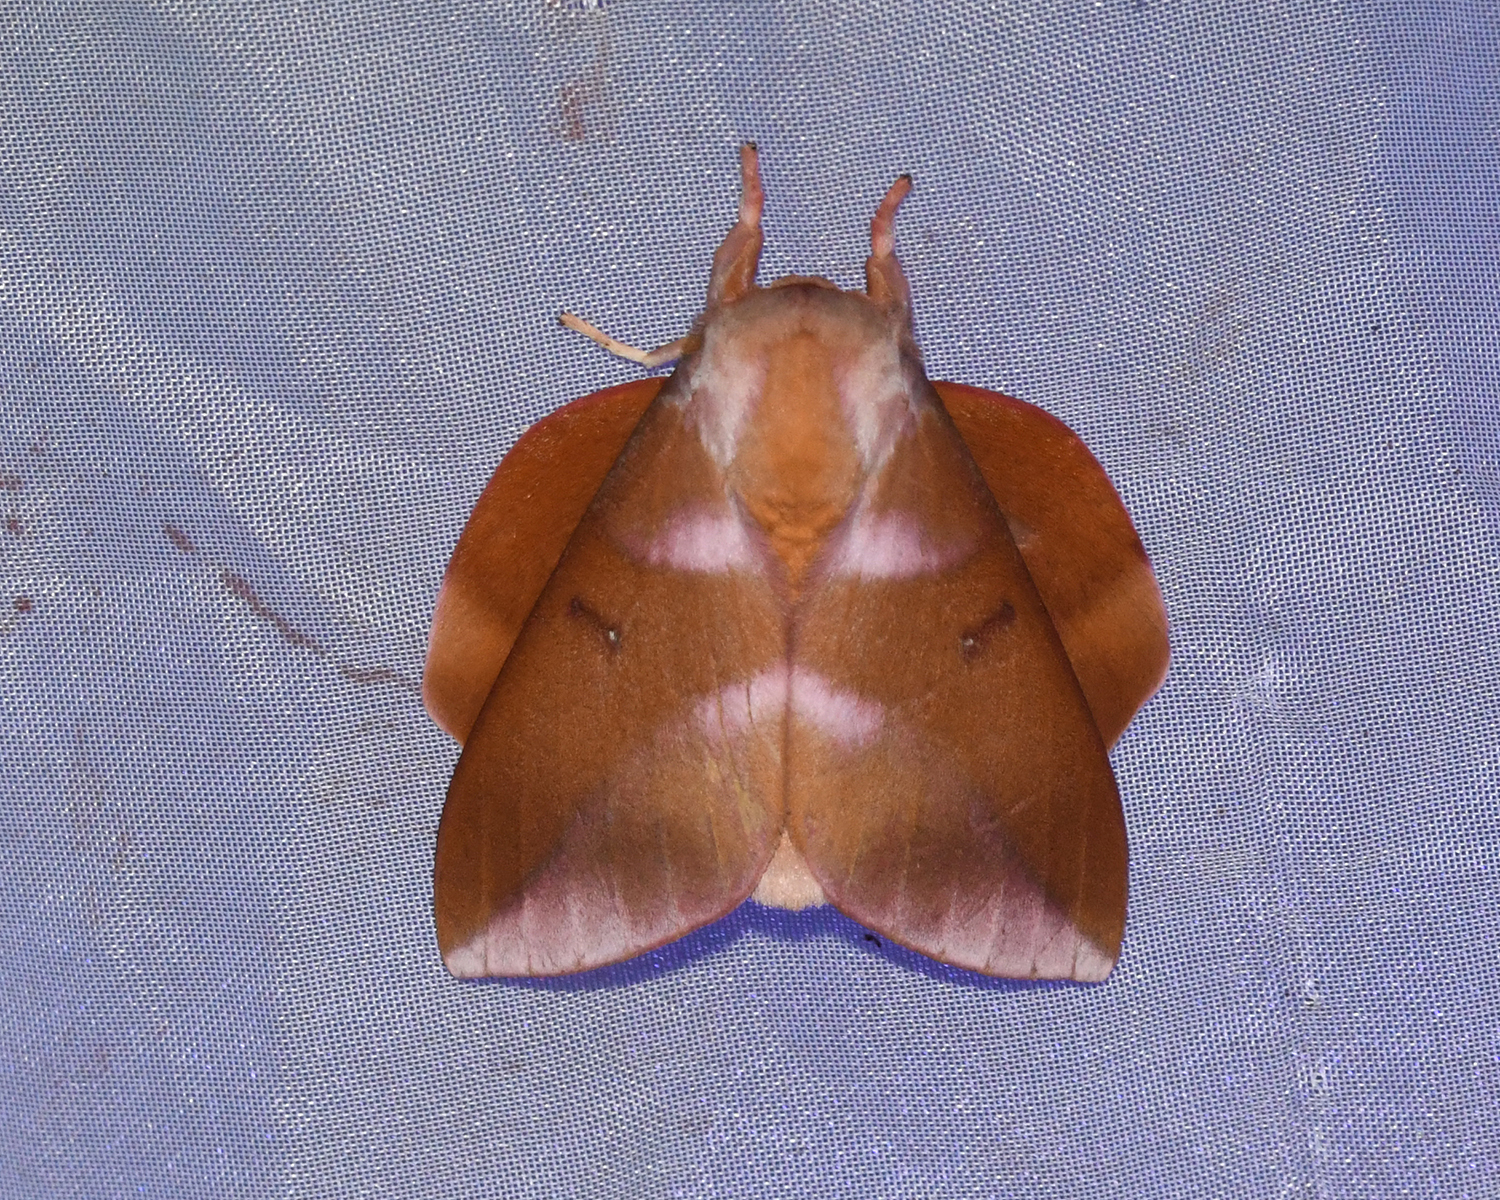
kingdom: Animalia
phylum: Arthropoda
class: Insecta
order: Lepidoptera
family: Saturniidae
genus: Othorene
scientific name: Othorene purpurascens
